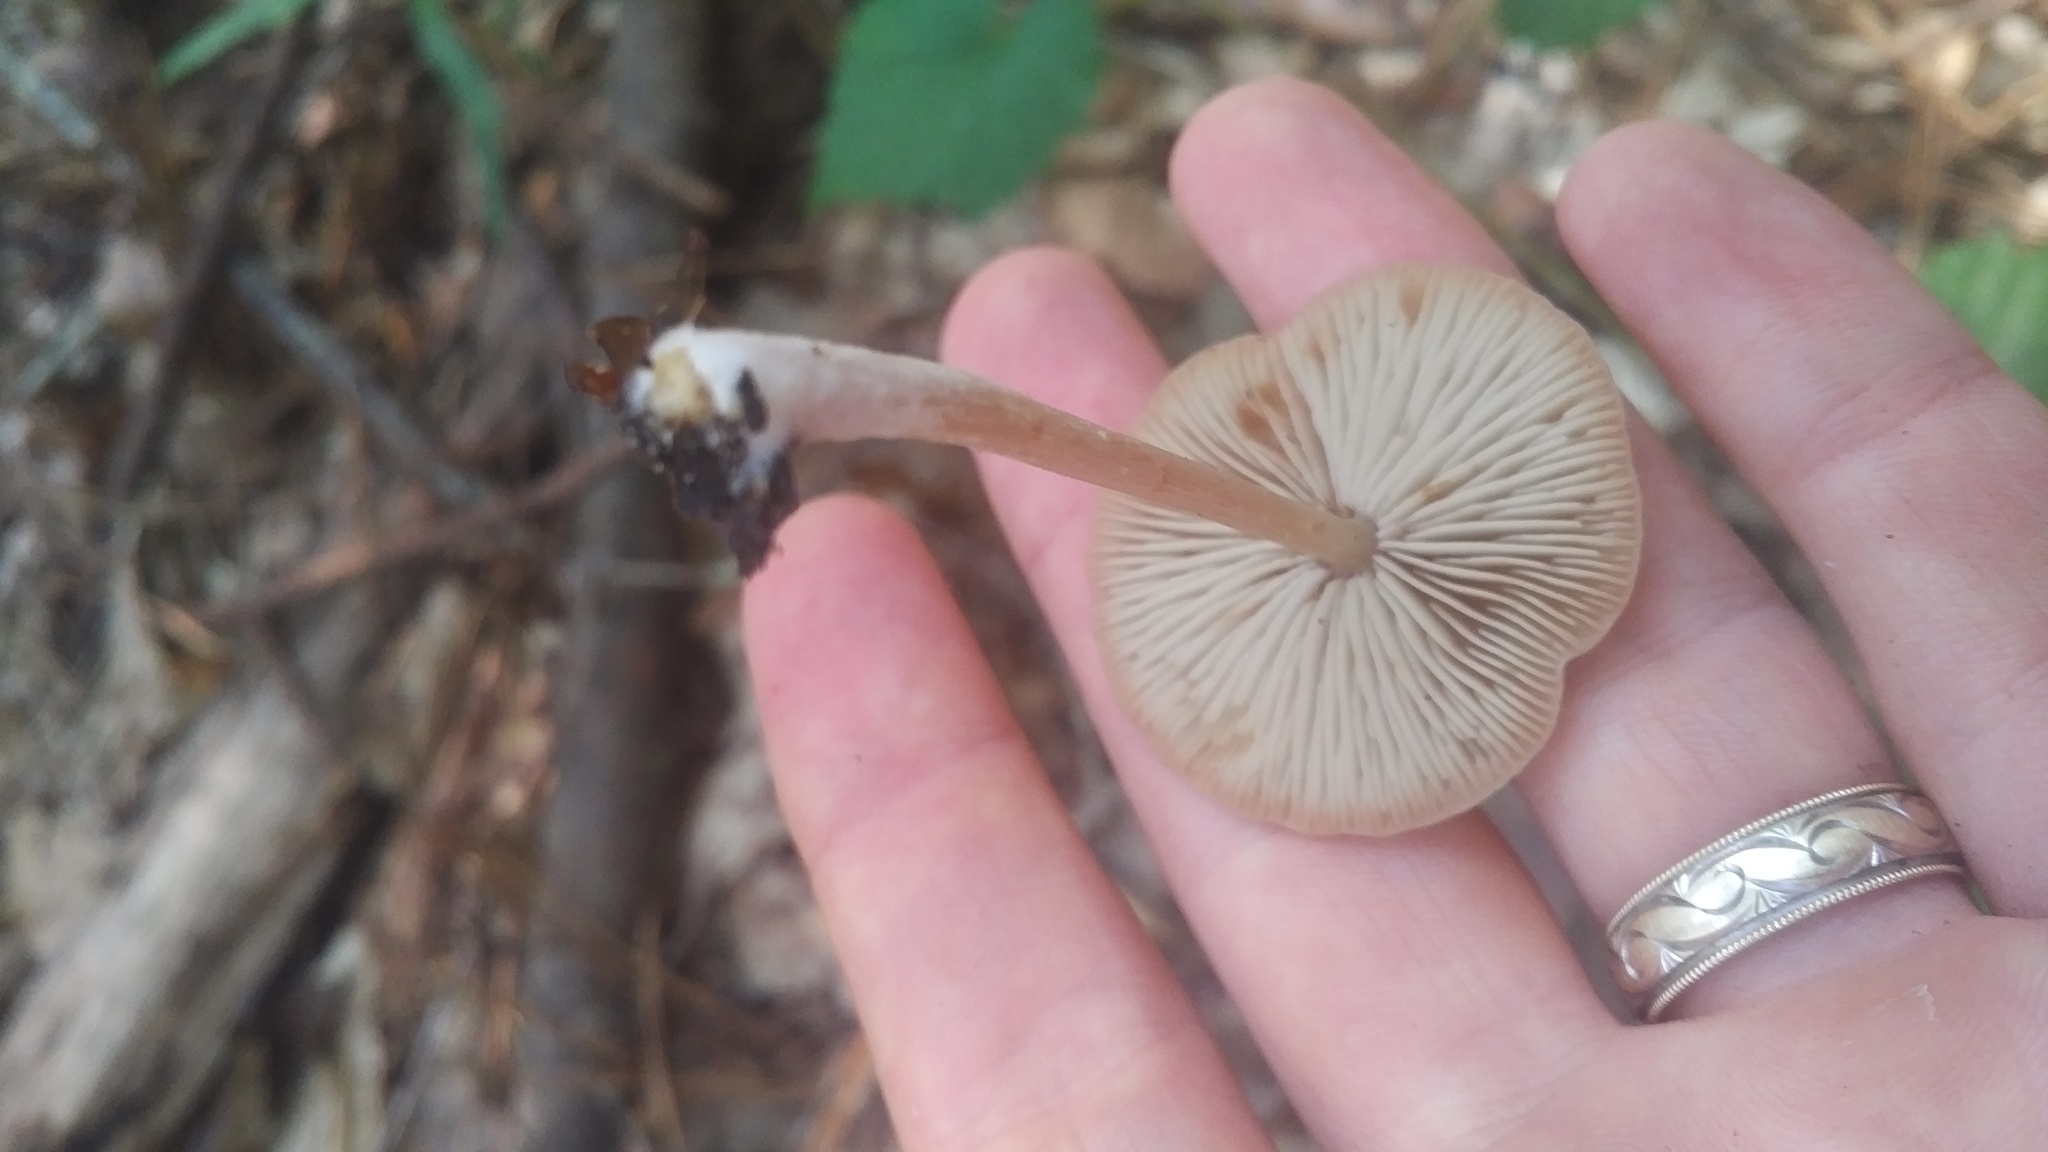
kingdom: Fungi
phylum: Basidiomycota
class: Agaricomycetes
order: Agaricales
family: Entolomataceae
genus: Entoloma
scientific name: Entoloma strictius
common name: Straight-stalked entoloma
